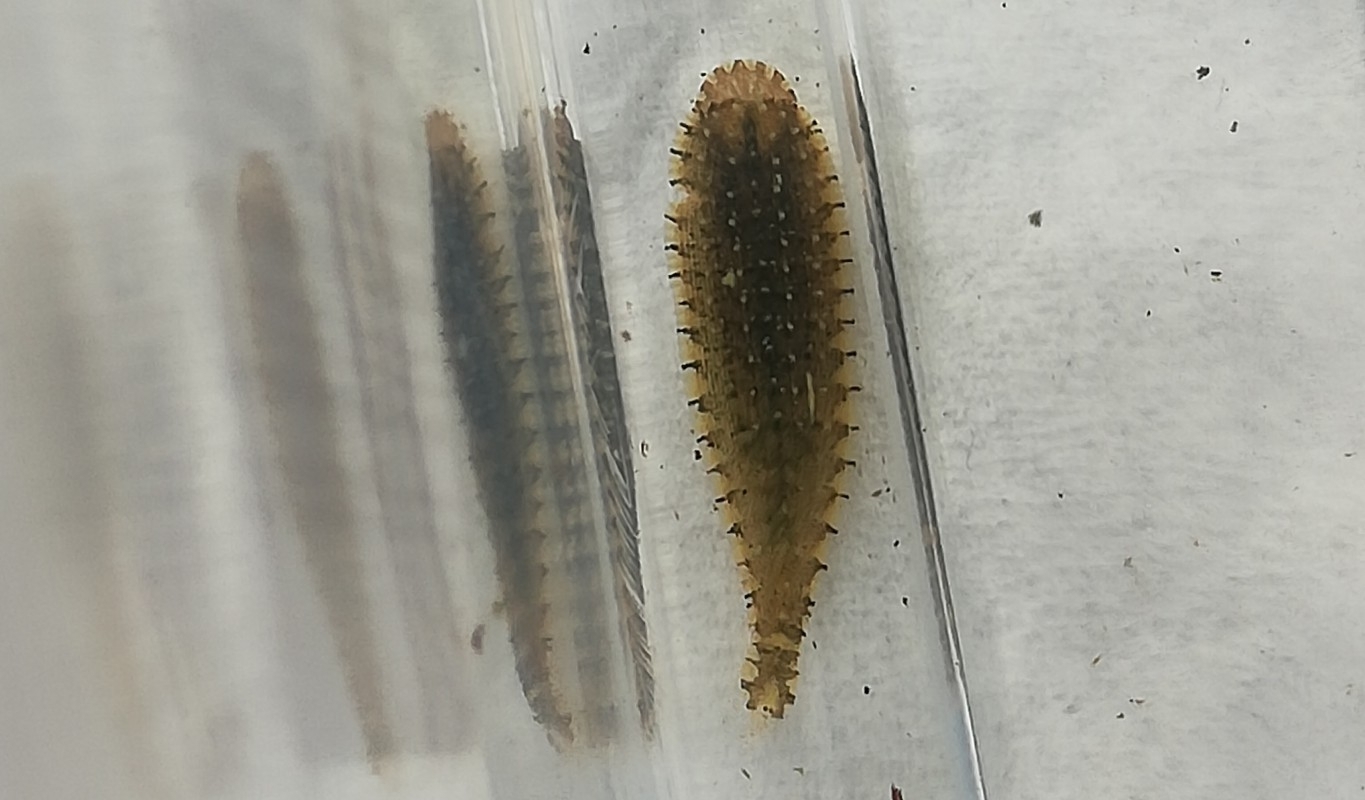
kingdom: Animalia
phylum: Annelida
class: Clitellata
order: Rhynchobdellida
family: Glossiphoniidae
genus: Hemiclepsis
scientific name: Hemiclepsis marginata
